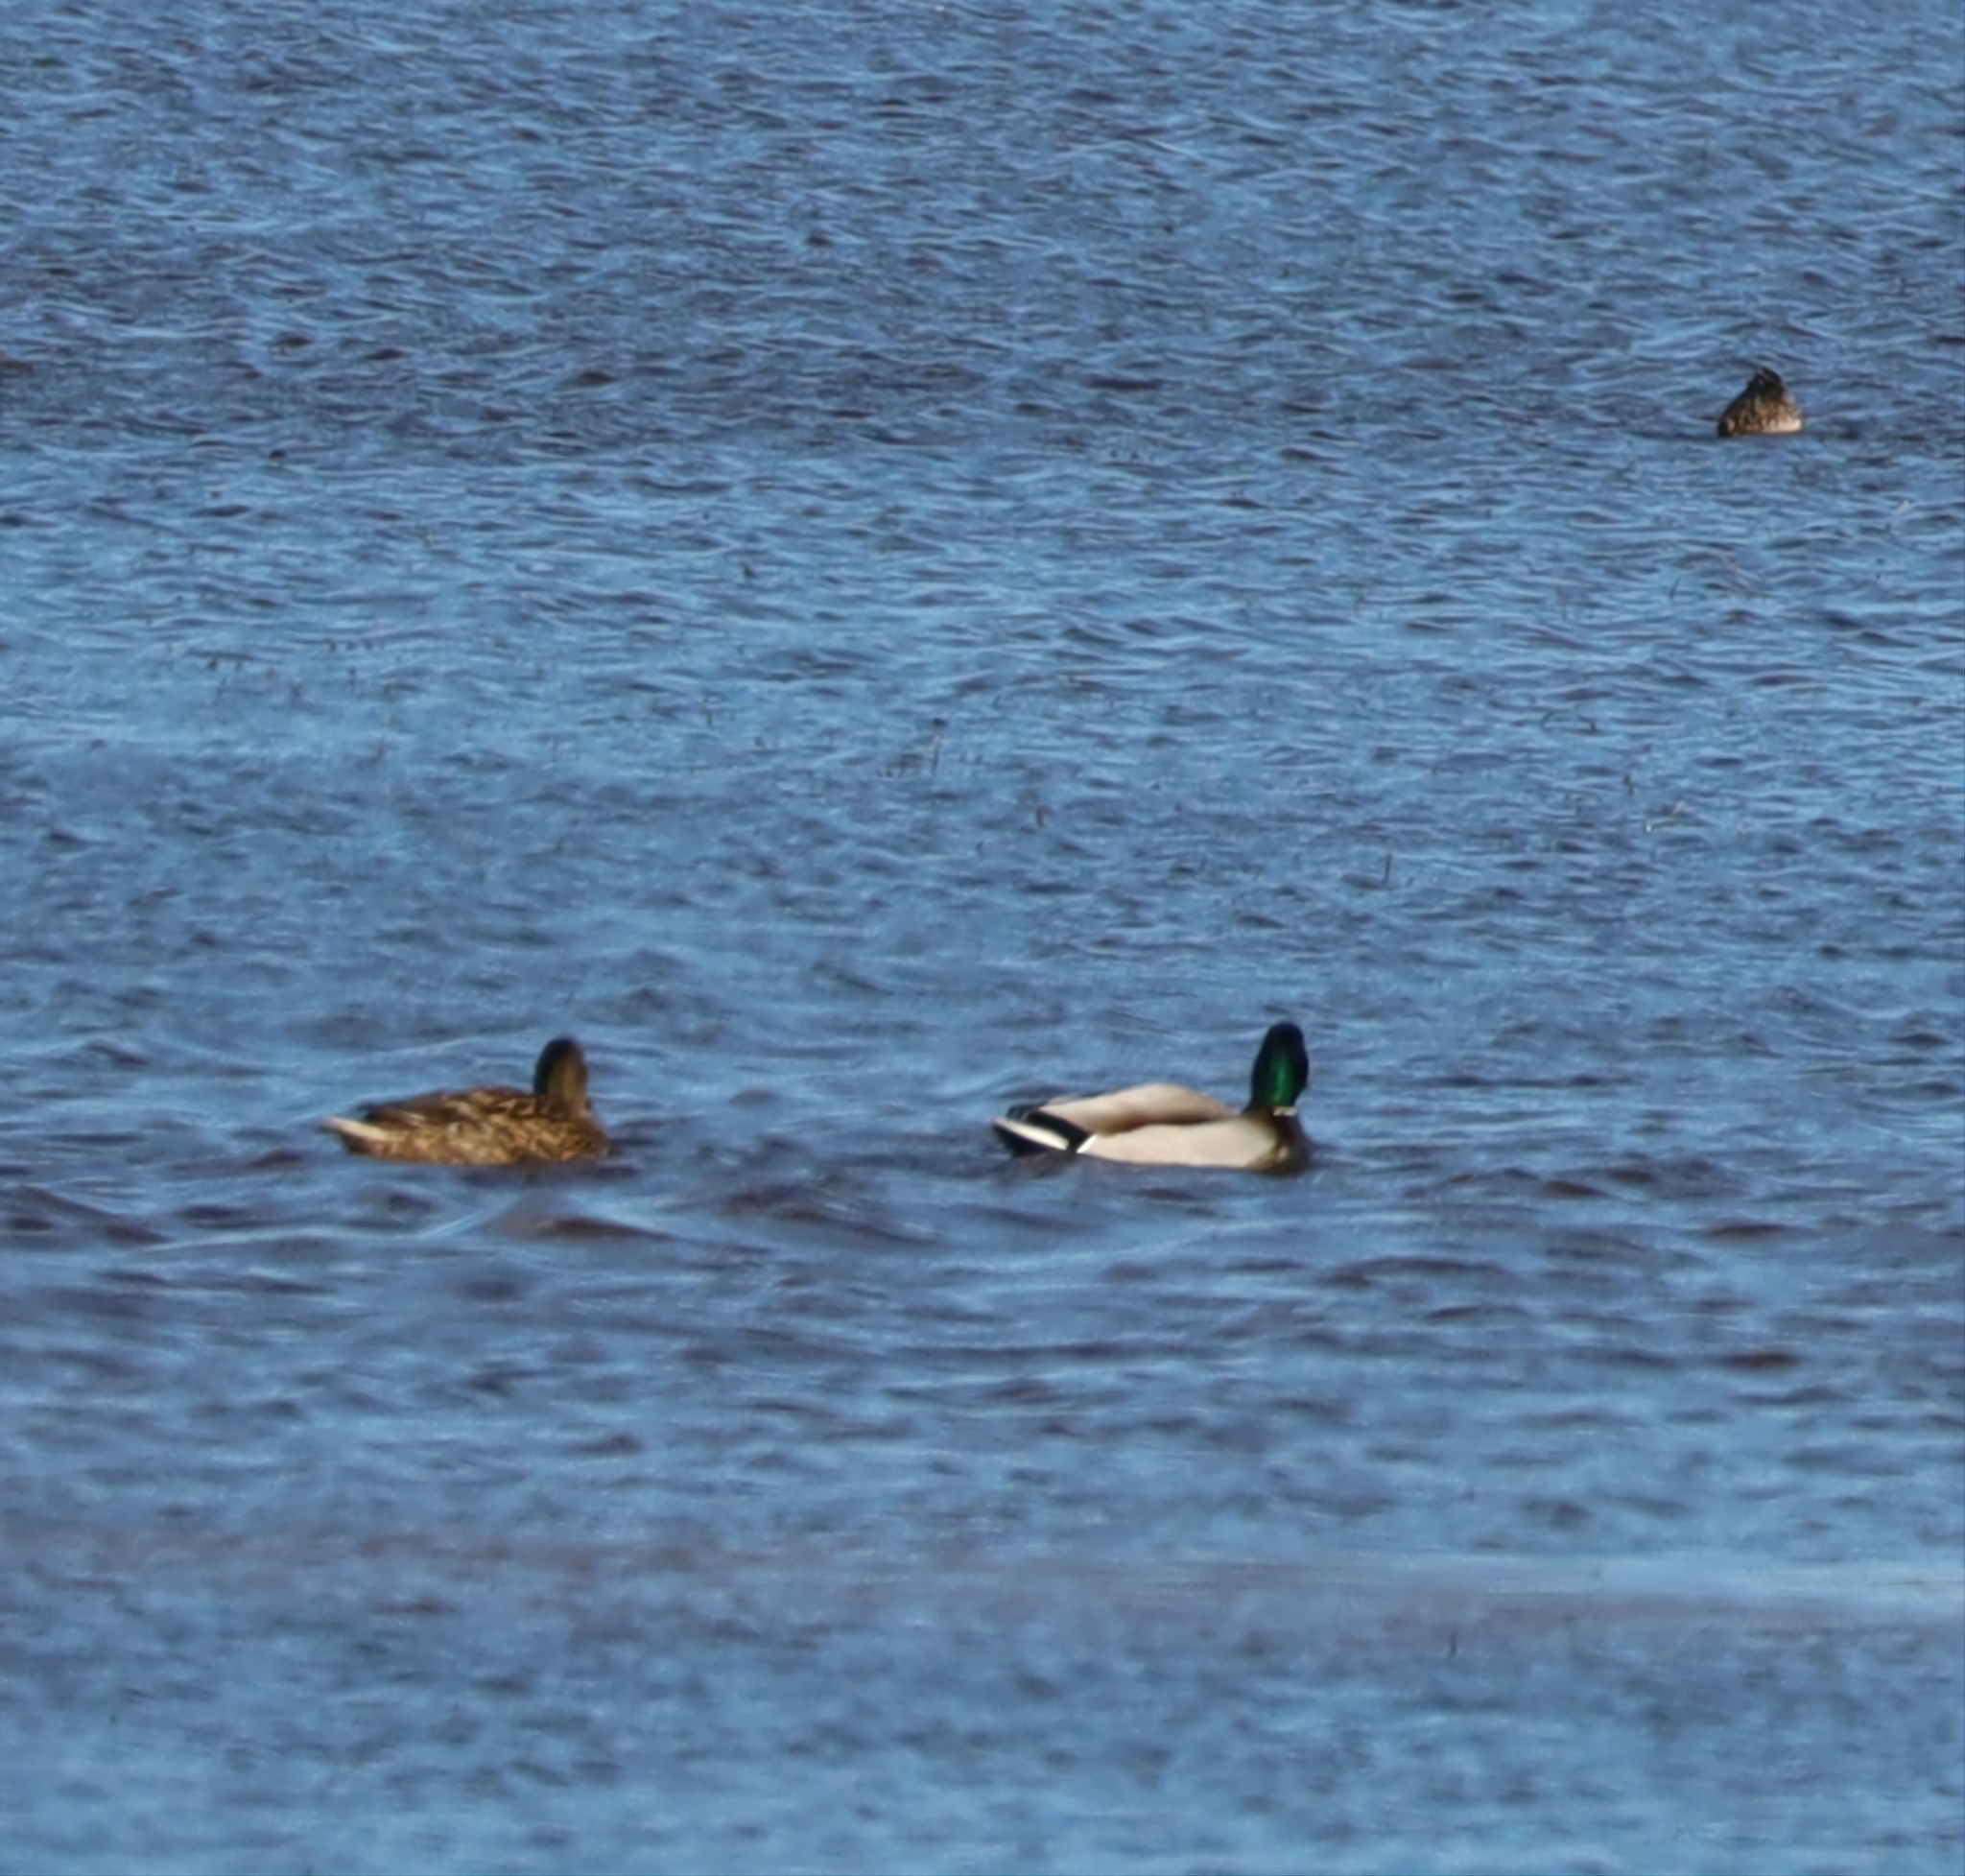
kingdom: Animalia
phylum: Chordata
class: Aves
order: Anseriformes
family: Anatidae
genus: Anas
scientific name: Anas platyrhynchos
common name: Mallard
